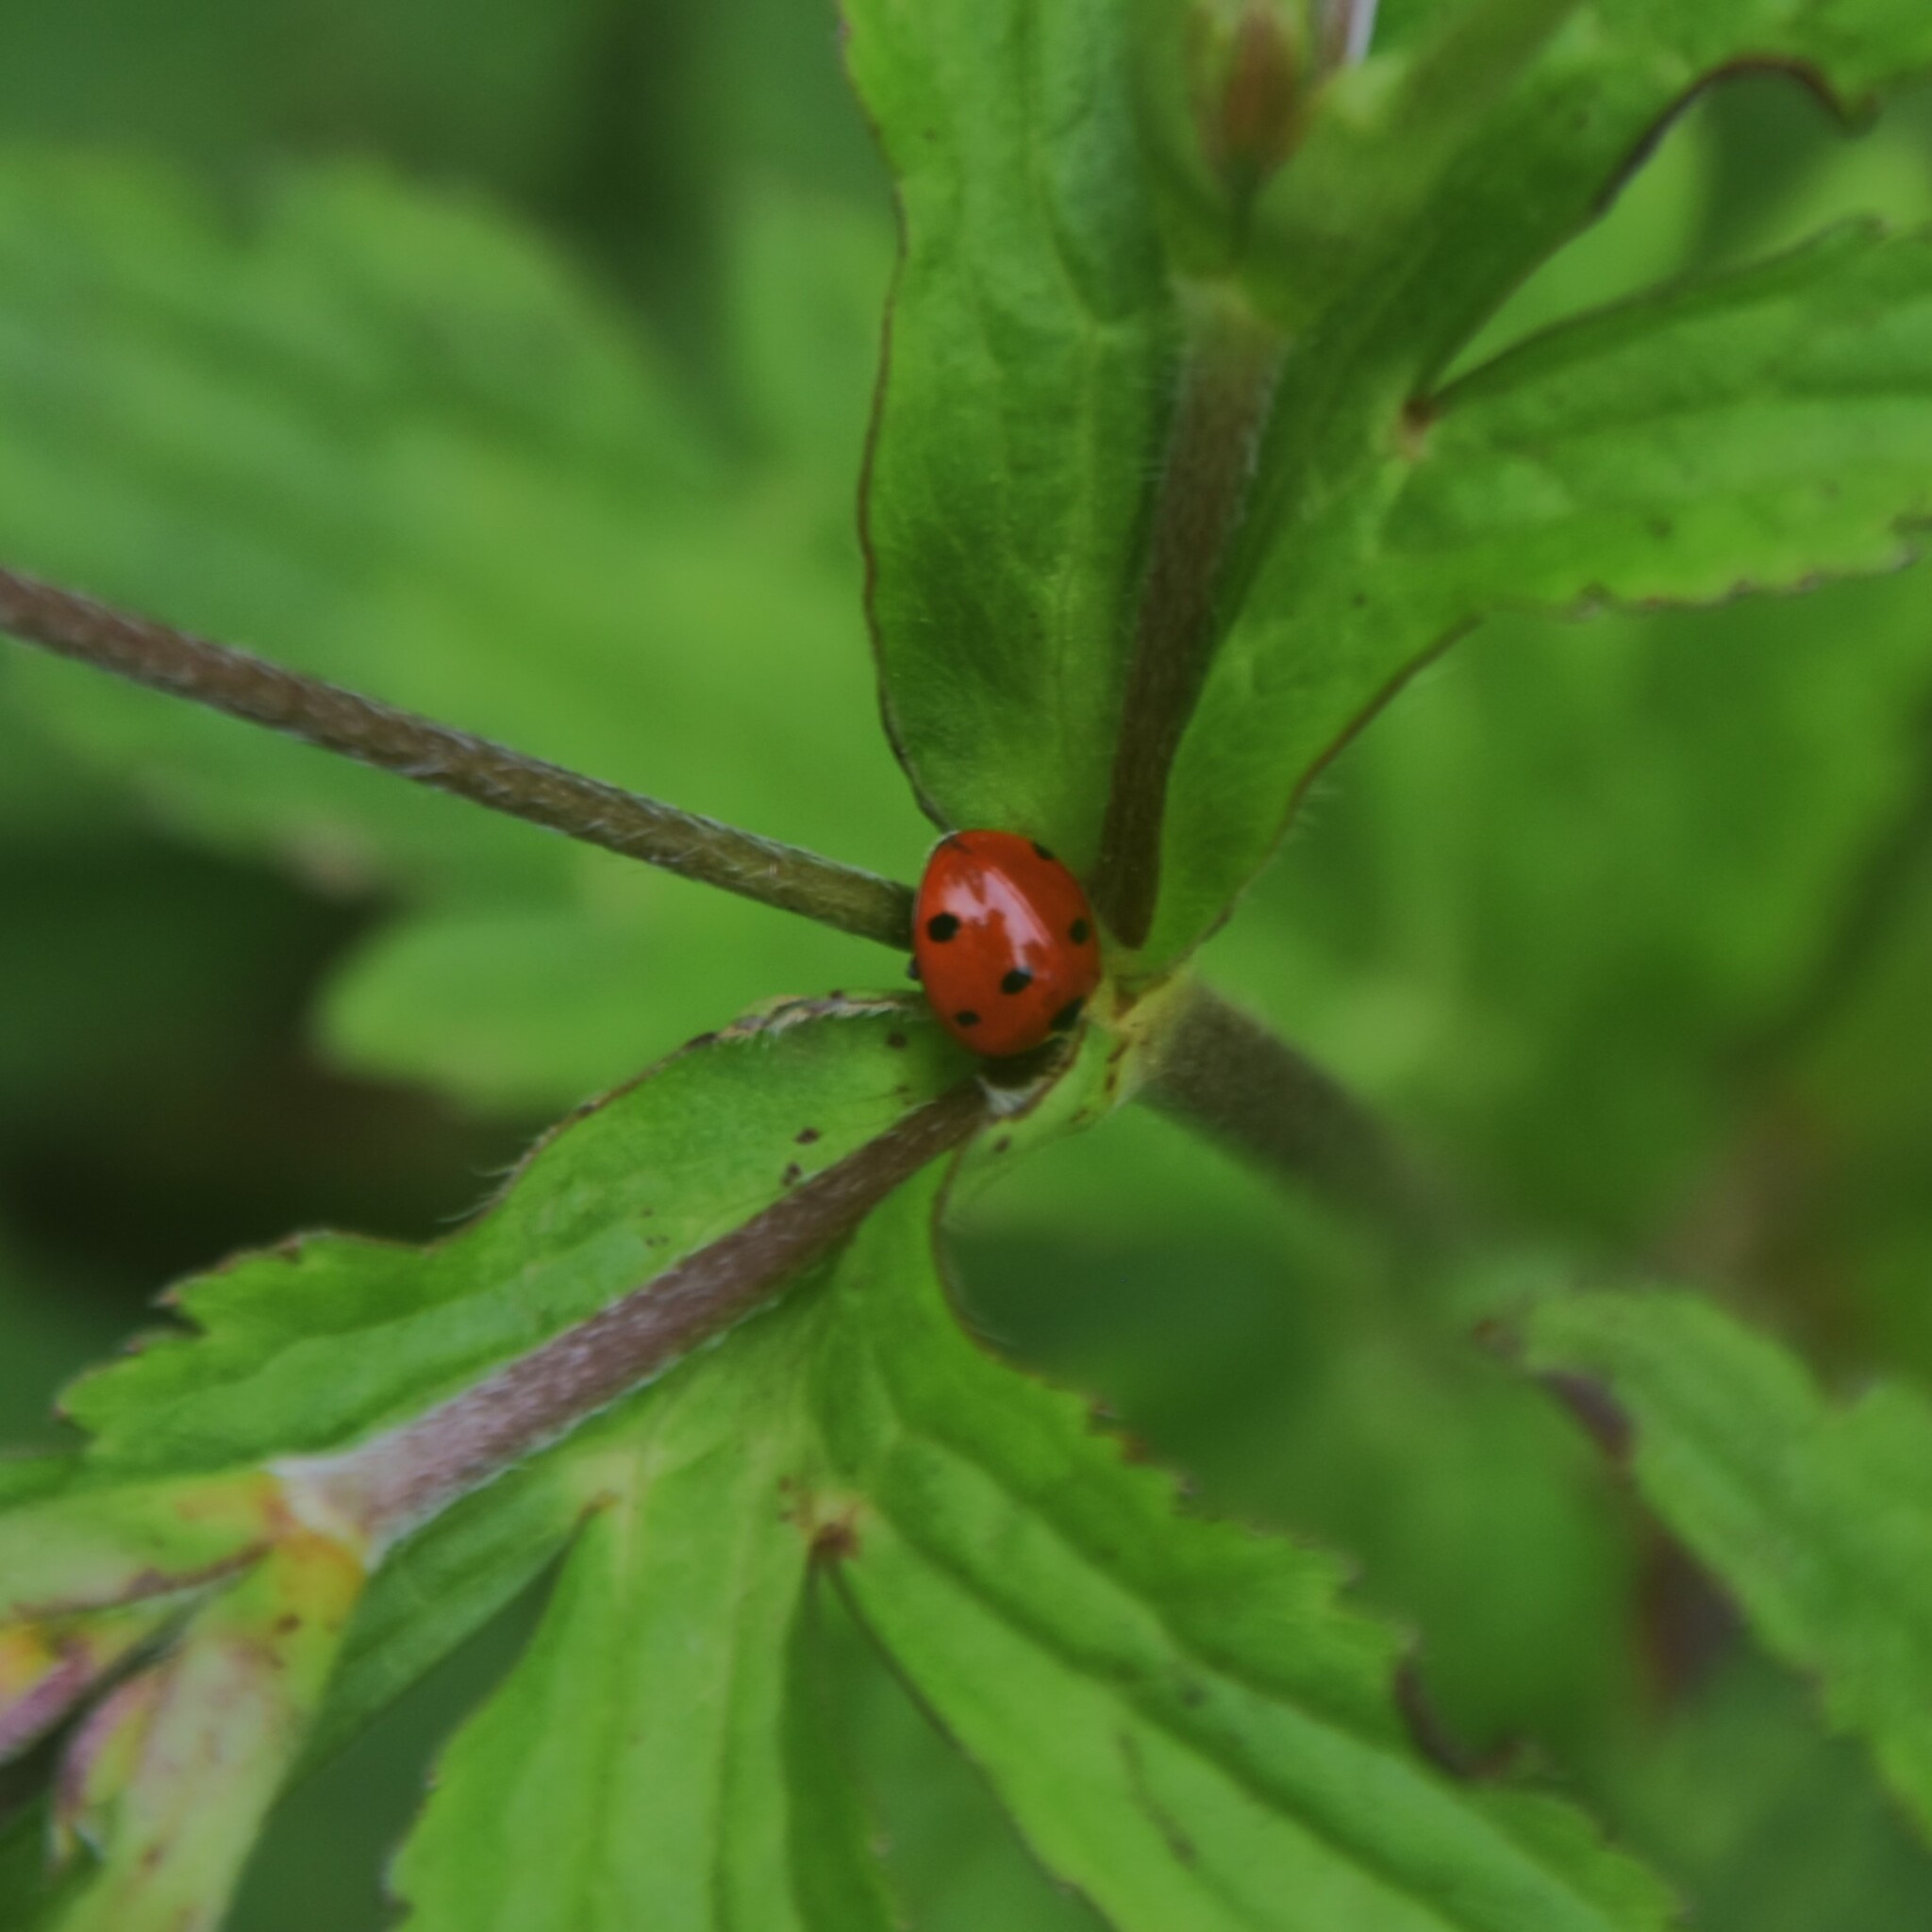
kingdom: Animalia
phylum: Arthropoda
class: Insecta
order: Coleoptera
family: Coccinellidae
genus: Coccinella
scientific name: Coccinella septempunctata
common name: Sevenspotted lady beetle
